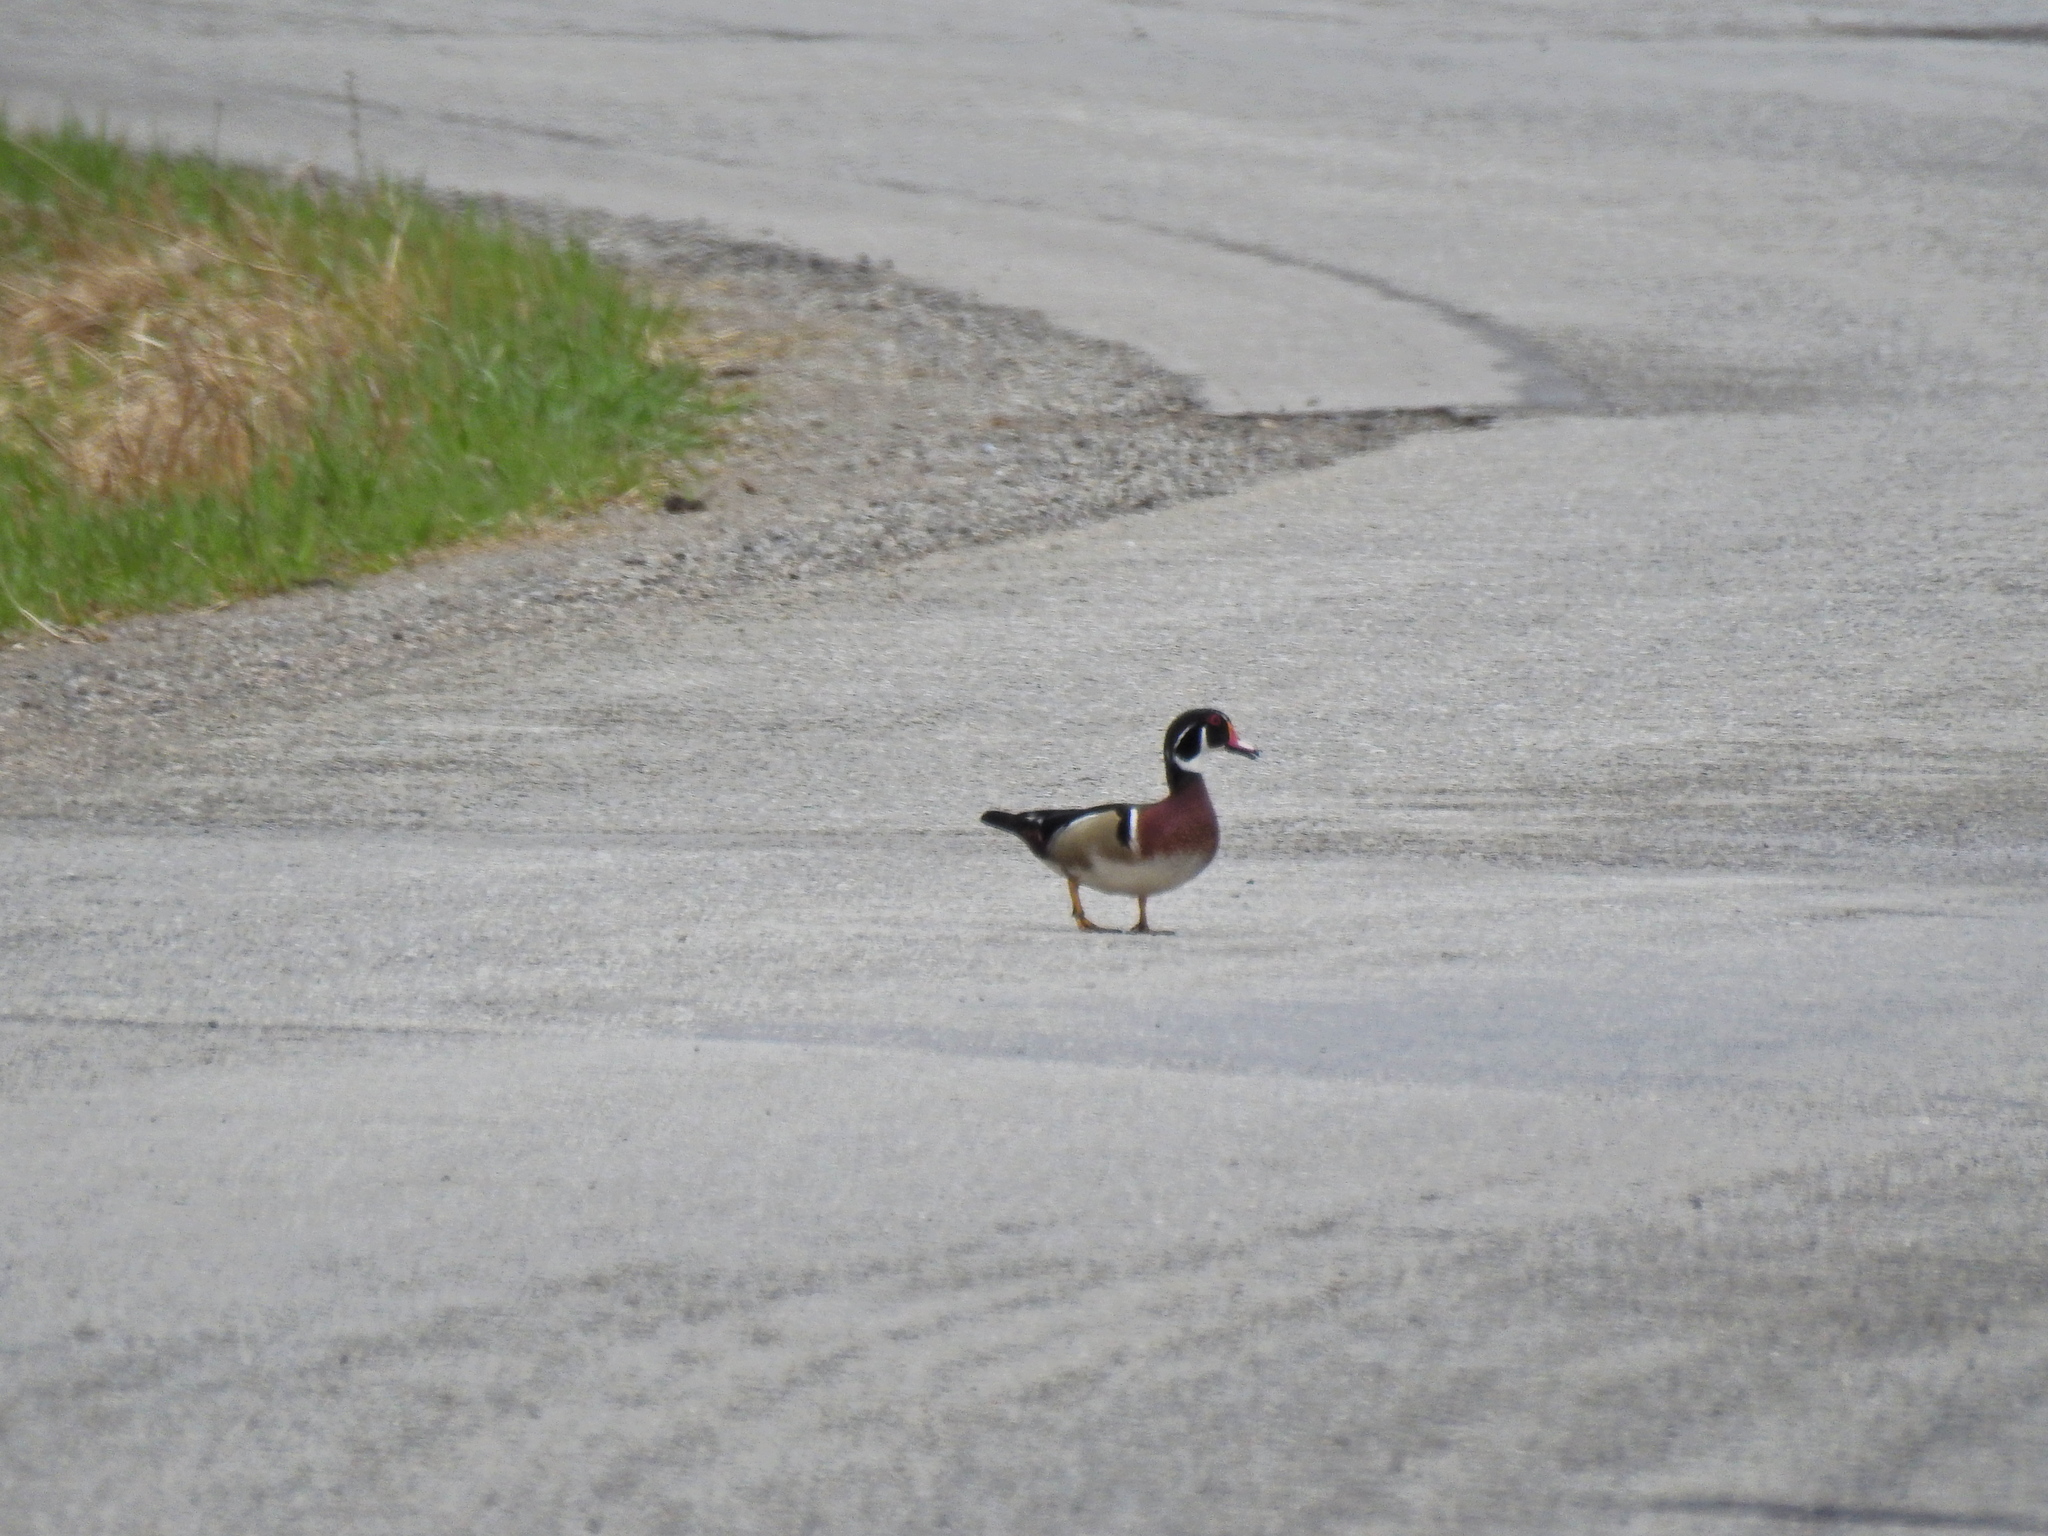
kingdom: Animalia
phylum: Chordata
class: Aves
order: Anseriformes
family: Anatidae
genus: Aix
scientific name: Aix sponsa
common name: Wood duck
